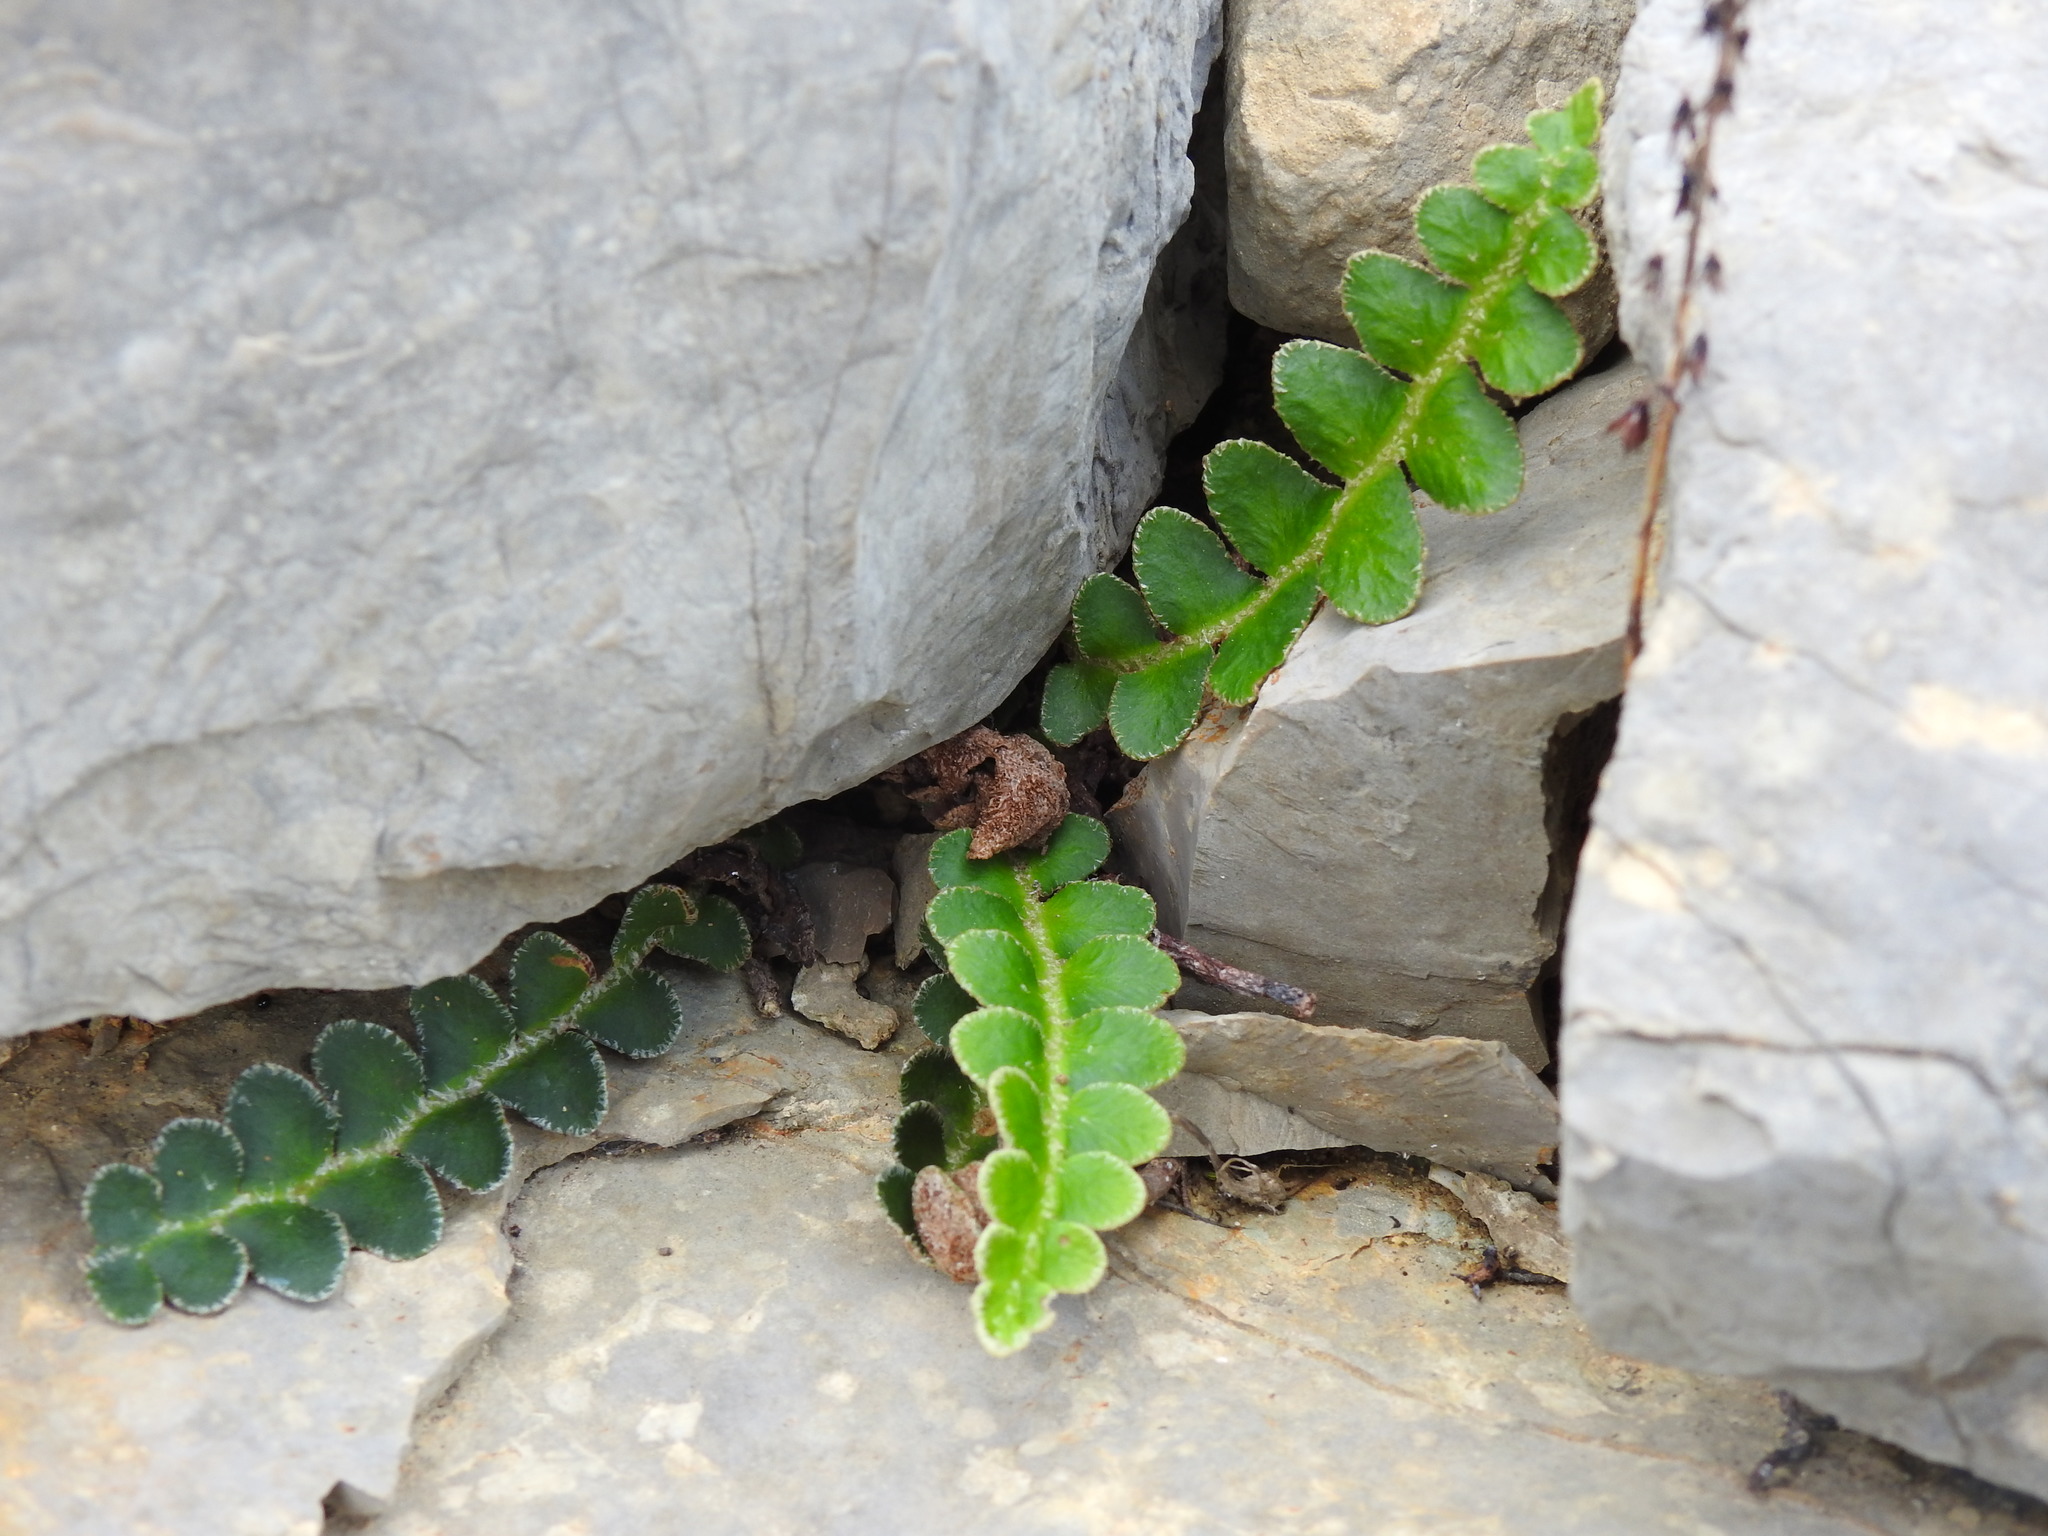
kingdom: Plantae
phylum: Tracheophyta
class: Polypodiopsida
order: Polypodiales
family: Aspleniaceae
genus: Asplenium
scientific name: Asplenium ceterach
